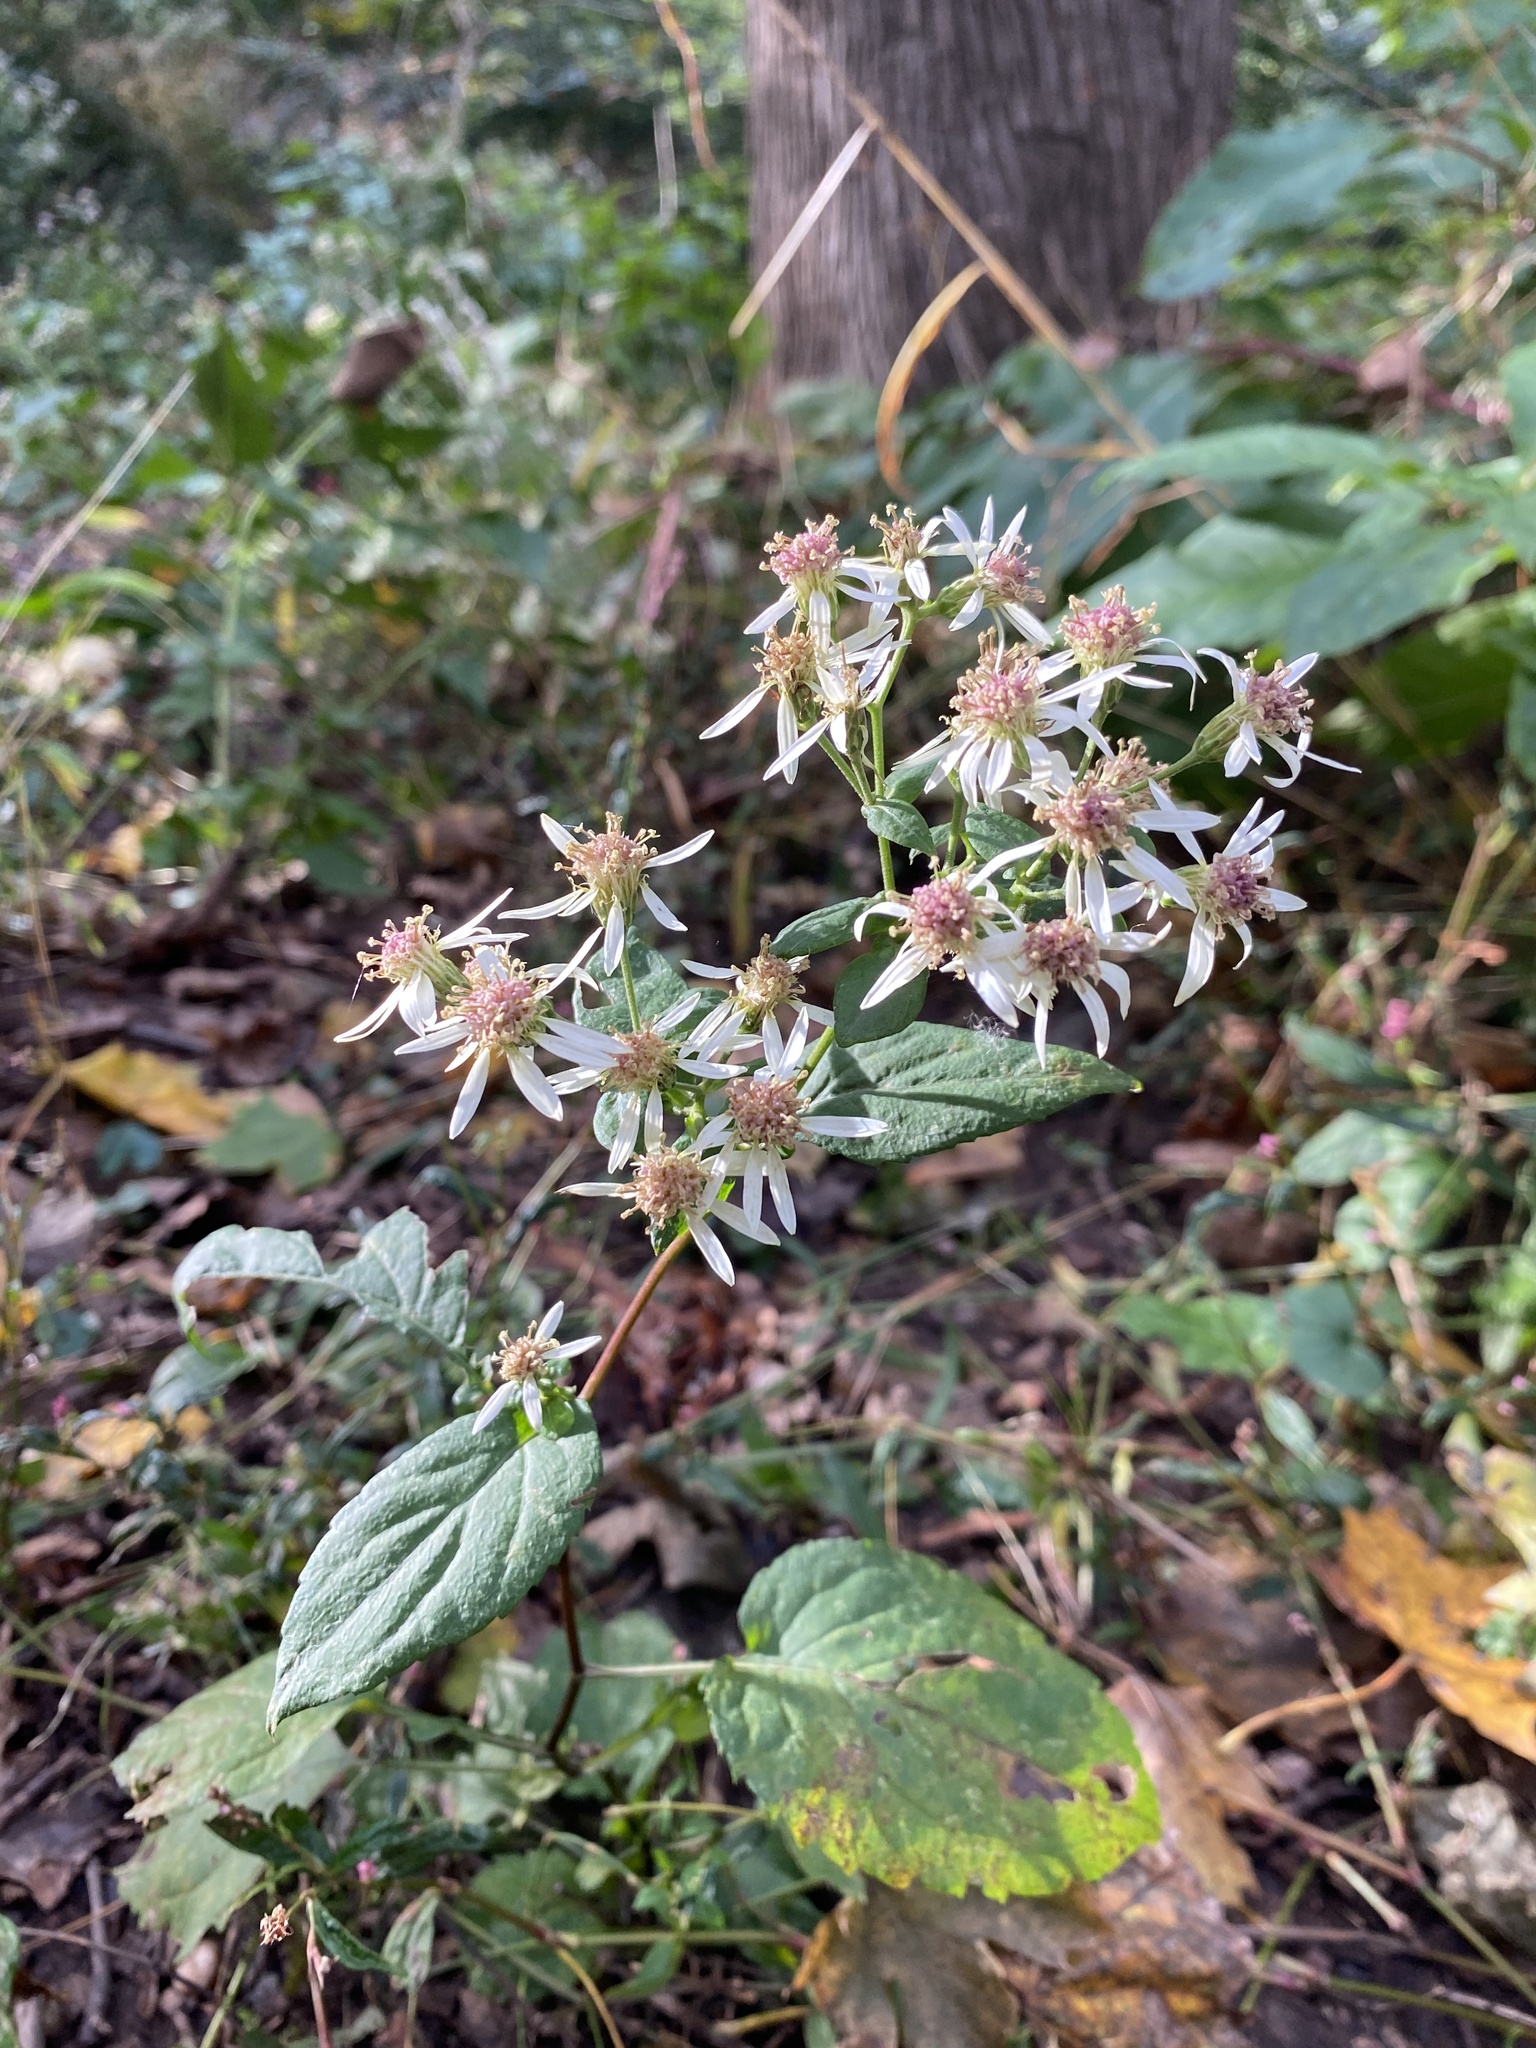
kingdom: Plantae
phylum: Tracheophyta
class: Magnoliopsida
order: Asterales
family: Asteraceae
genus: Eurybia
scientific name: Eurybia divaricata
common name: White wood aster
